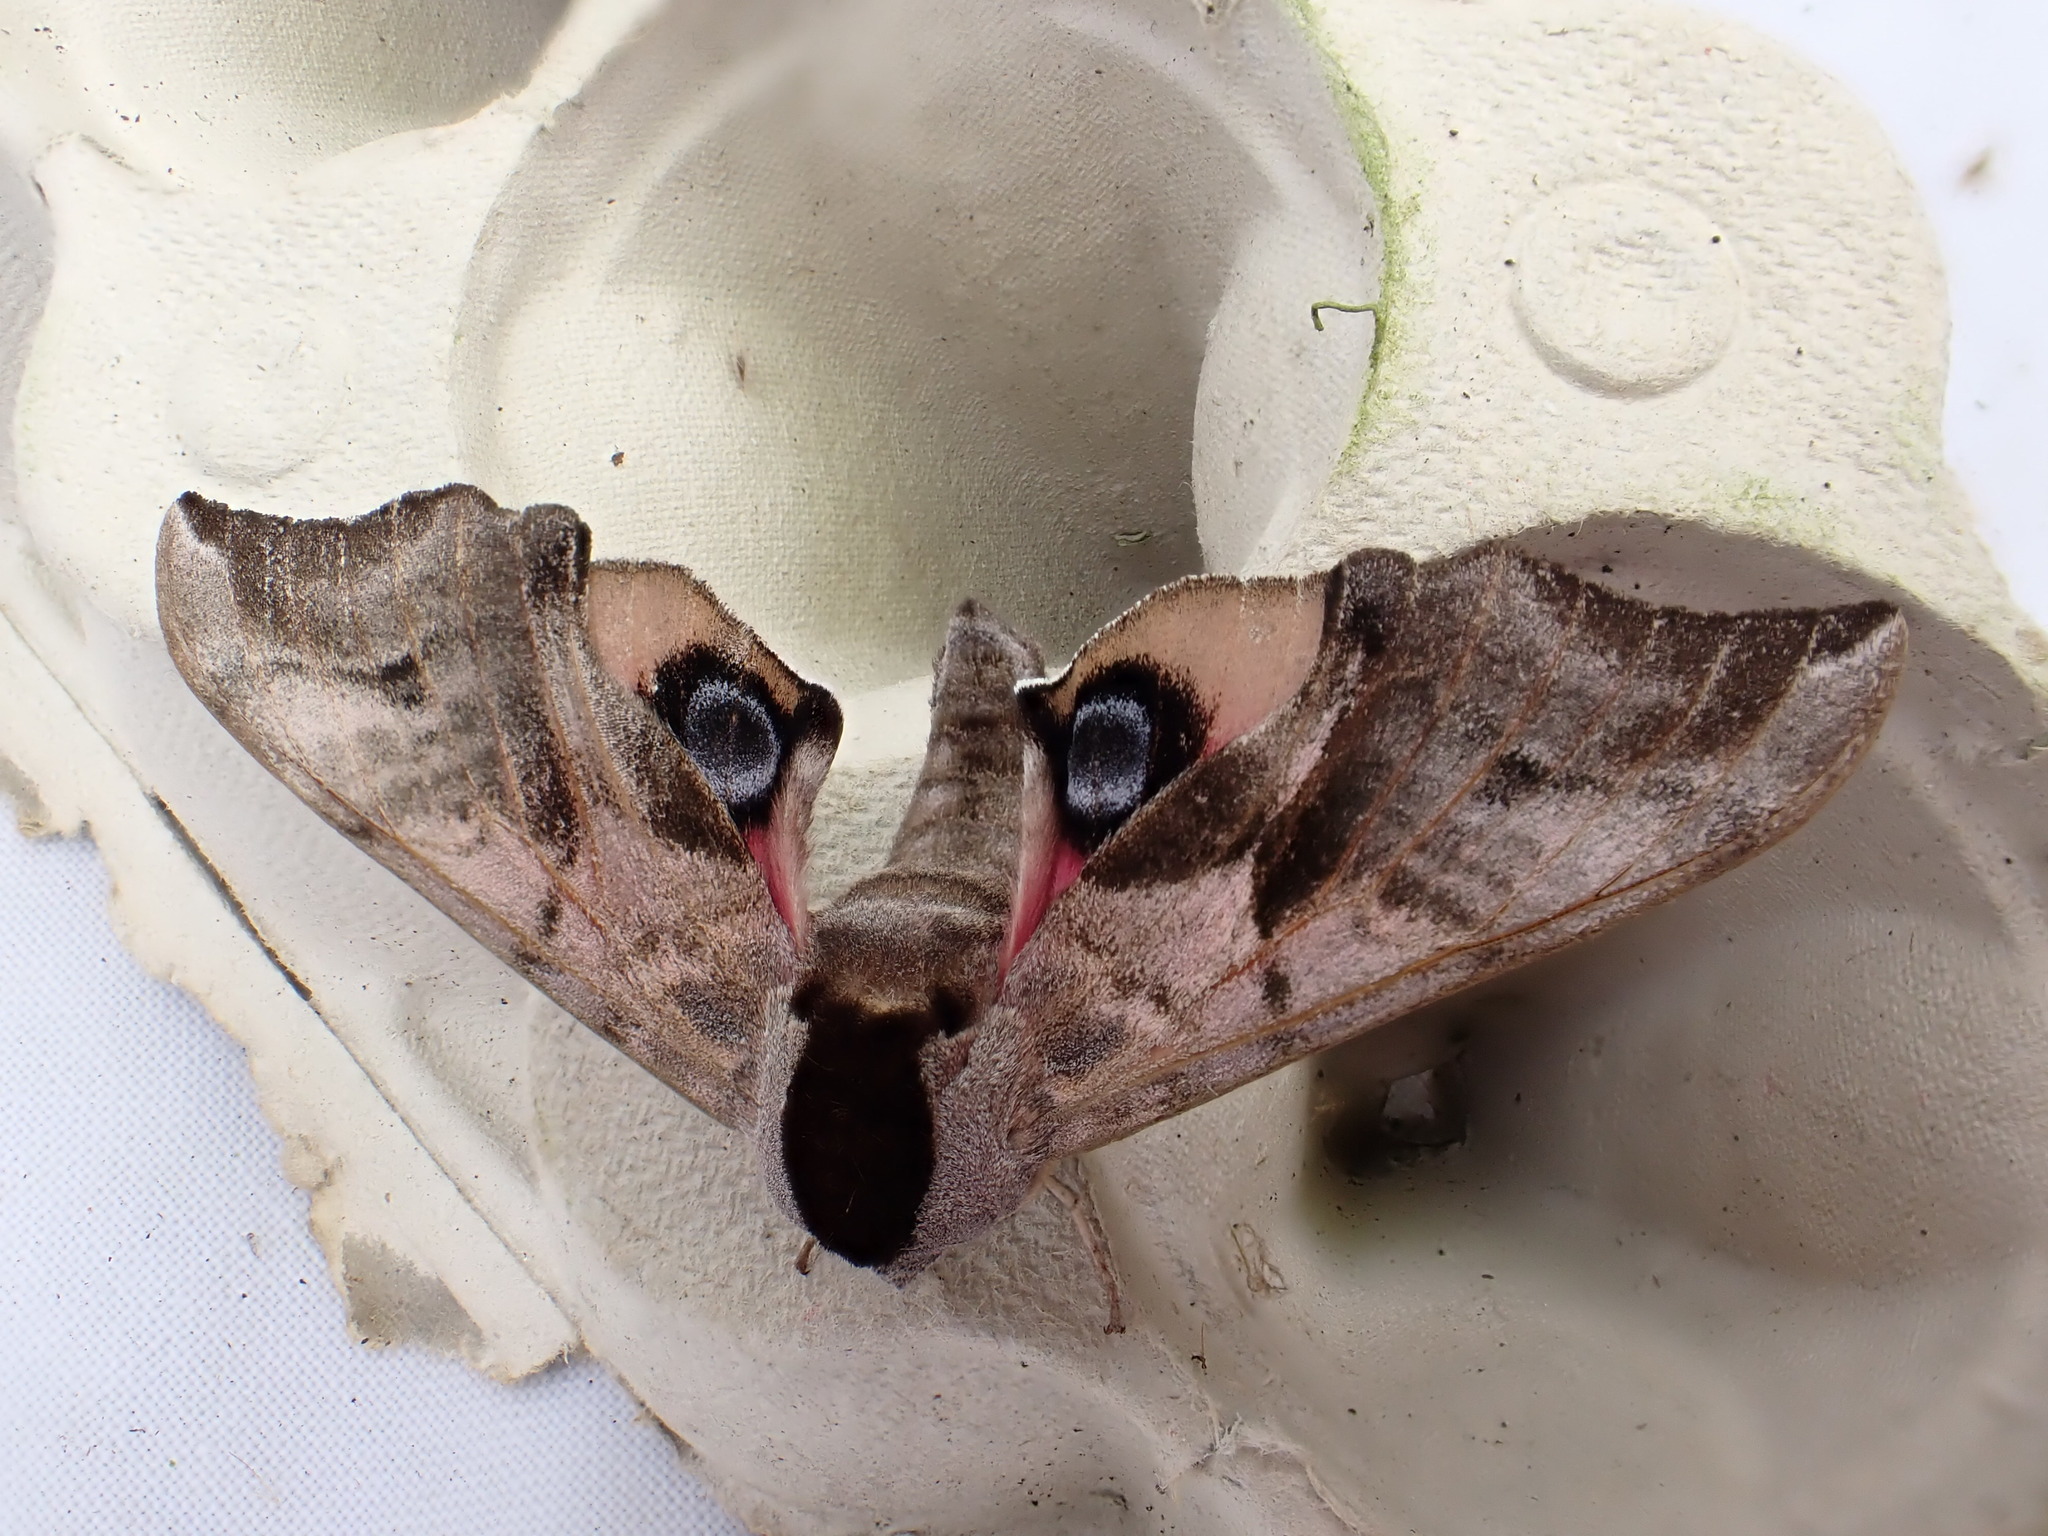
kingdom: Animalia
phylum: Arthropoda
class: Insecta
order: Lepidoptera
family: Sphingidae
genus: Smerinthus
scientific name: Smerinthus ocellata
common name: Eyed hawk-moth
